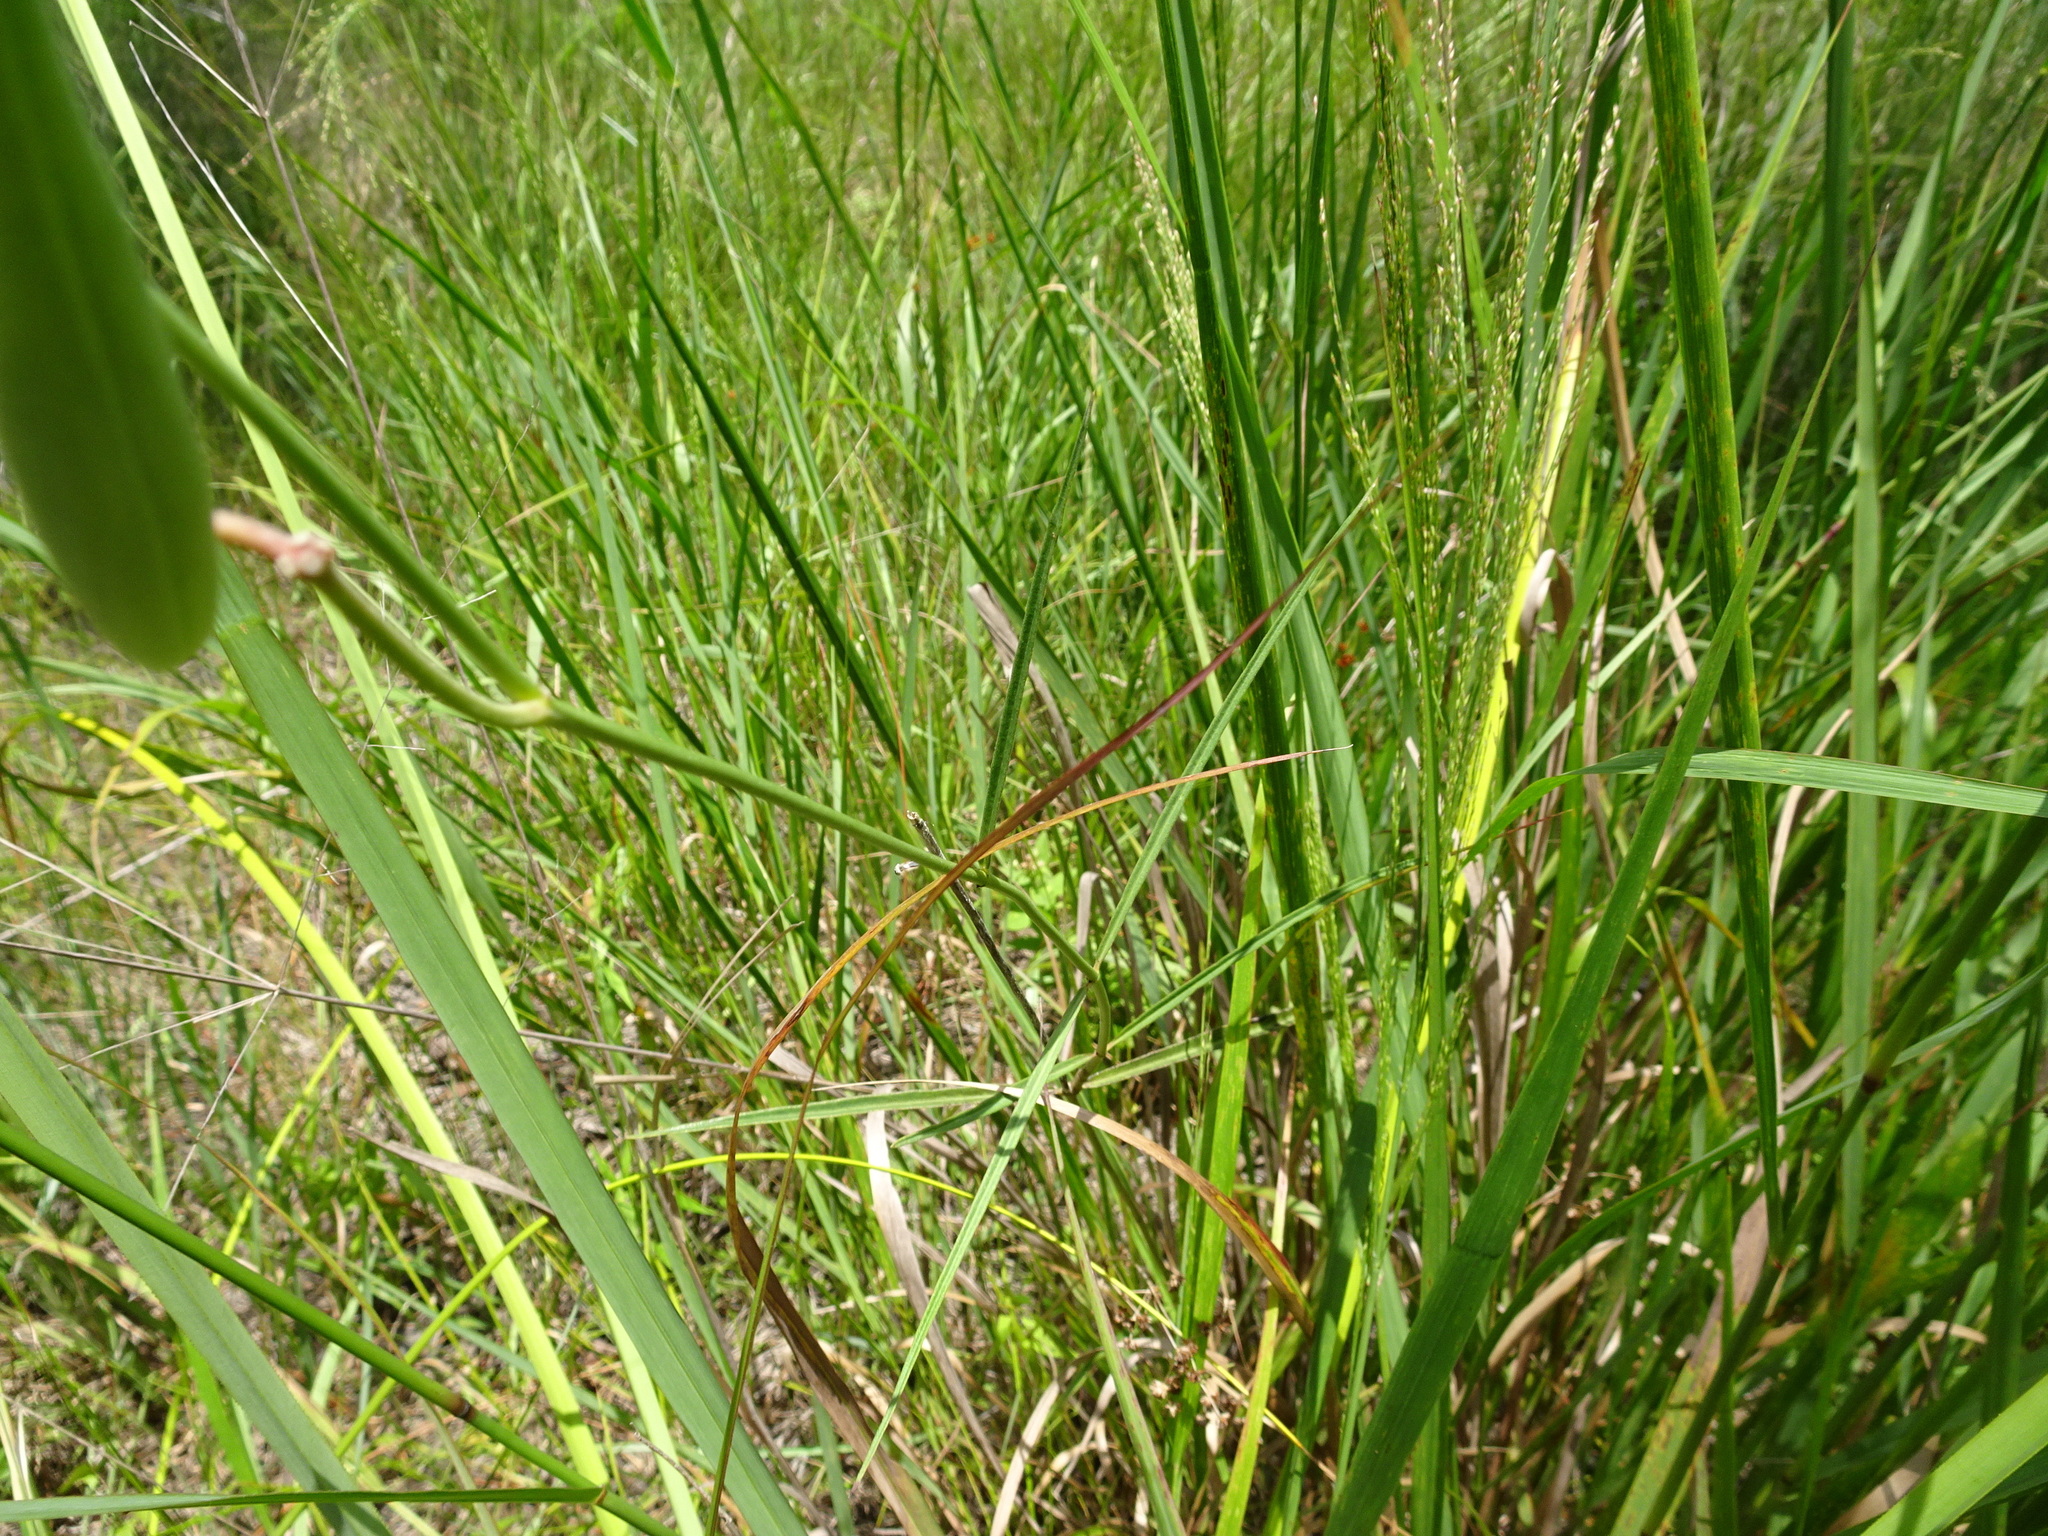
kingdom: Plantae
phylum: Tracheophyta
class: Magnoliopsida
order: Gentianales
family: Apocynaceae
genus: Asclepias
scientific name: Asclepias lanceolata
